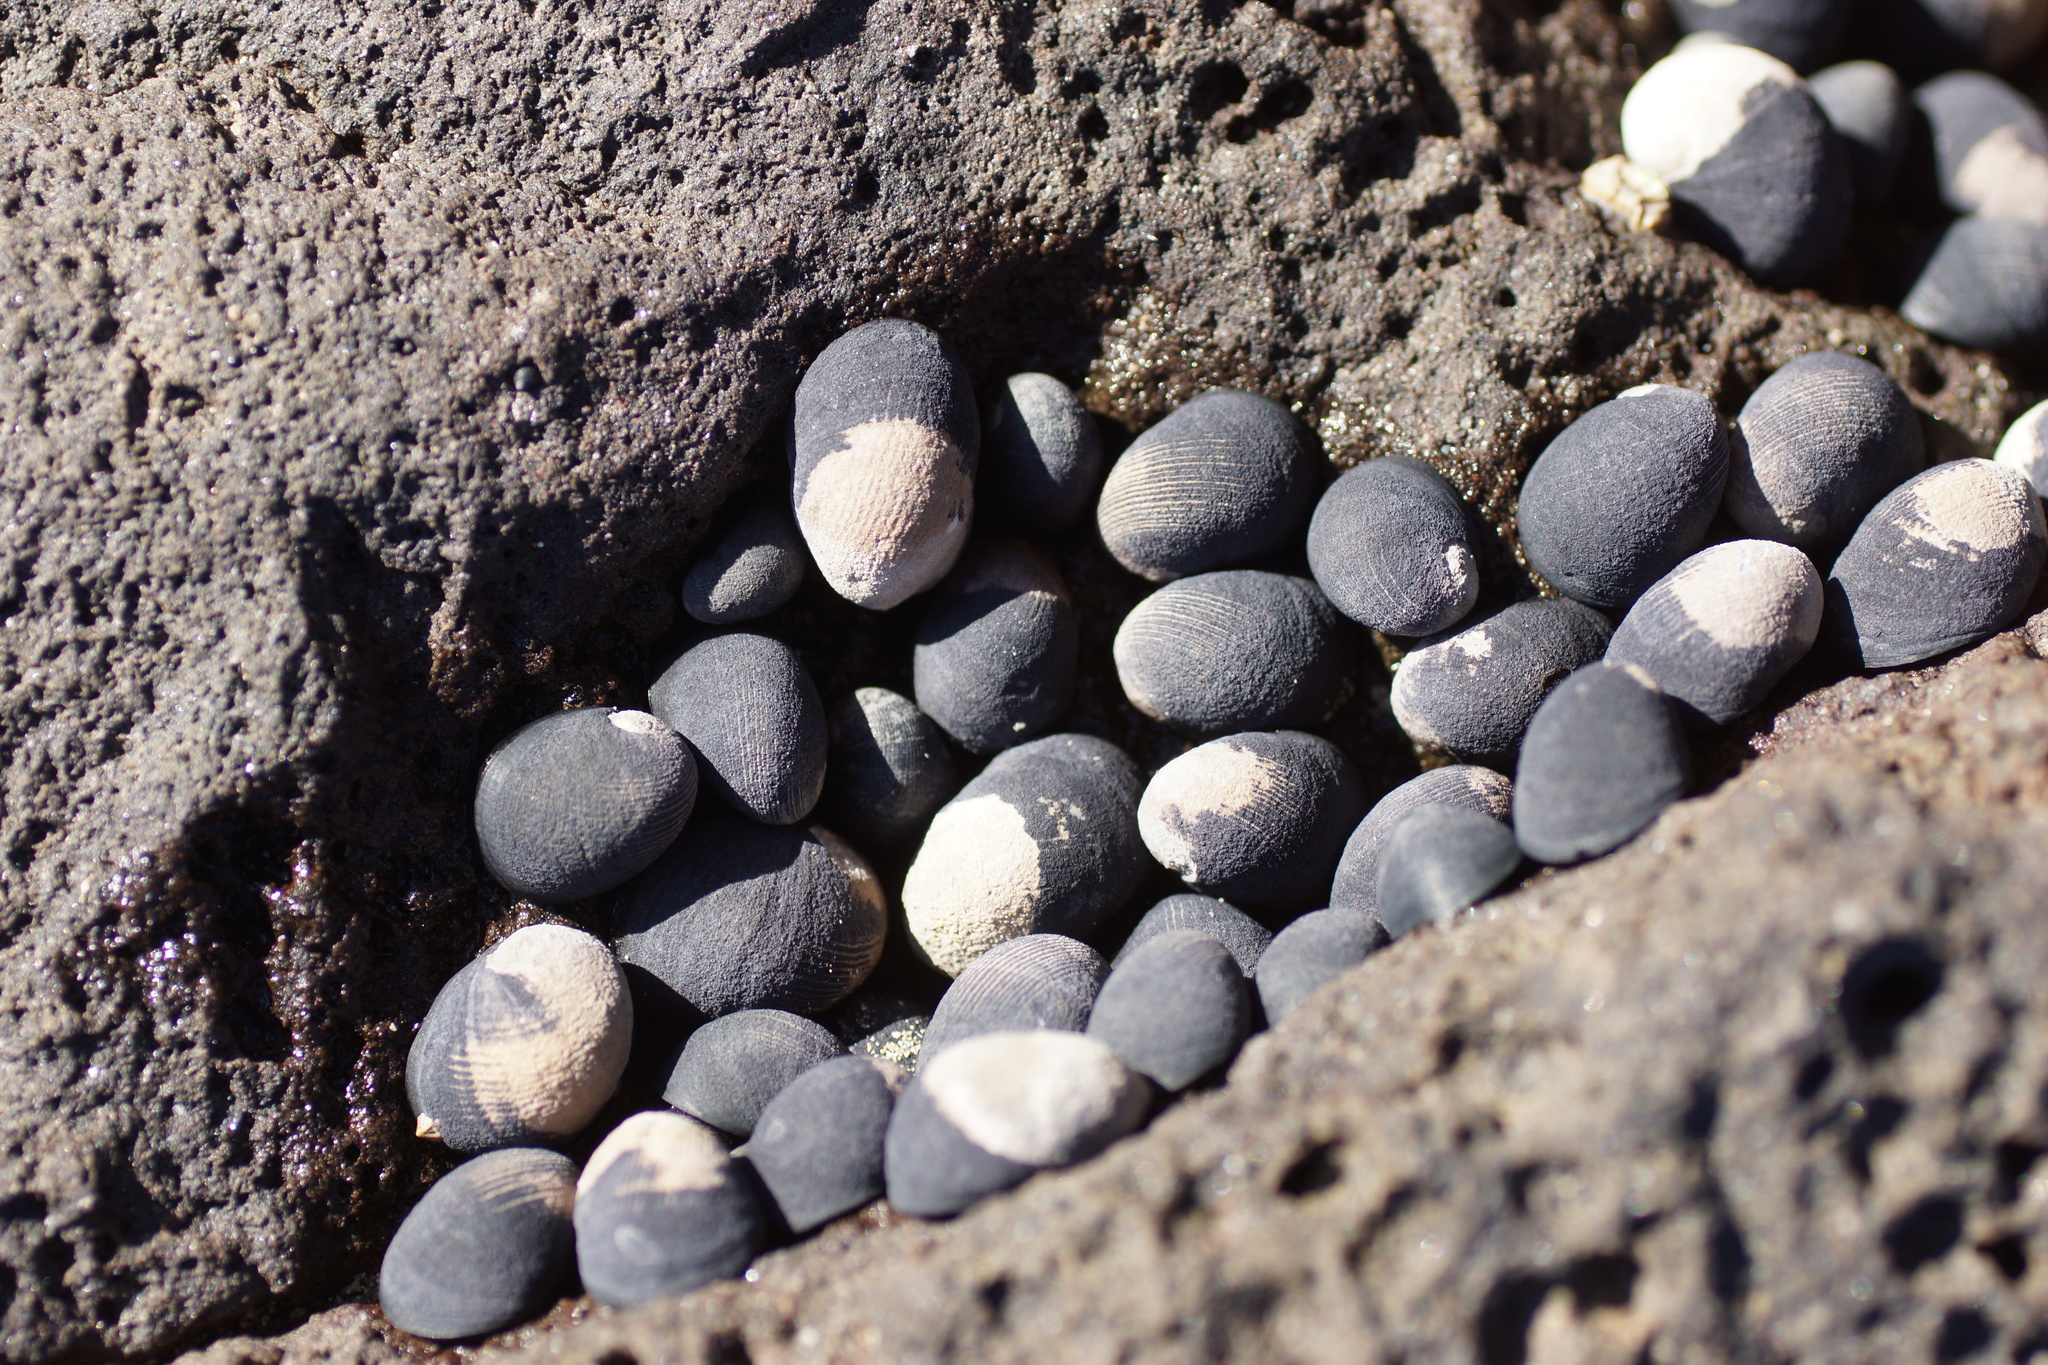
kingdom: Animalia
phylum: Mollusca
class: Gastropoda
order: Cycloneritida
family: Neritidae
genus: Nerita
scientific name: Nerita atramentosa
